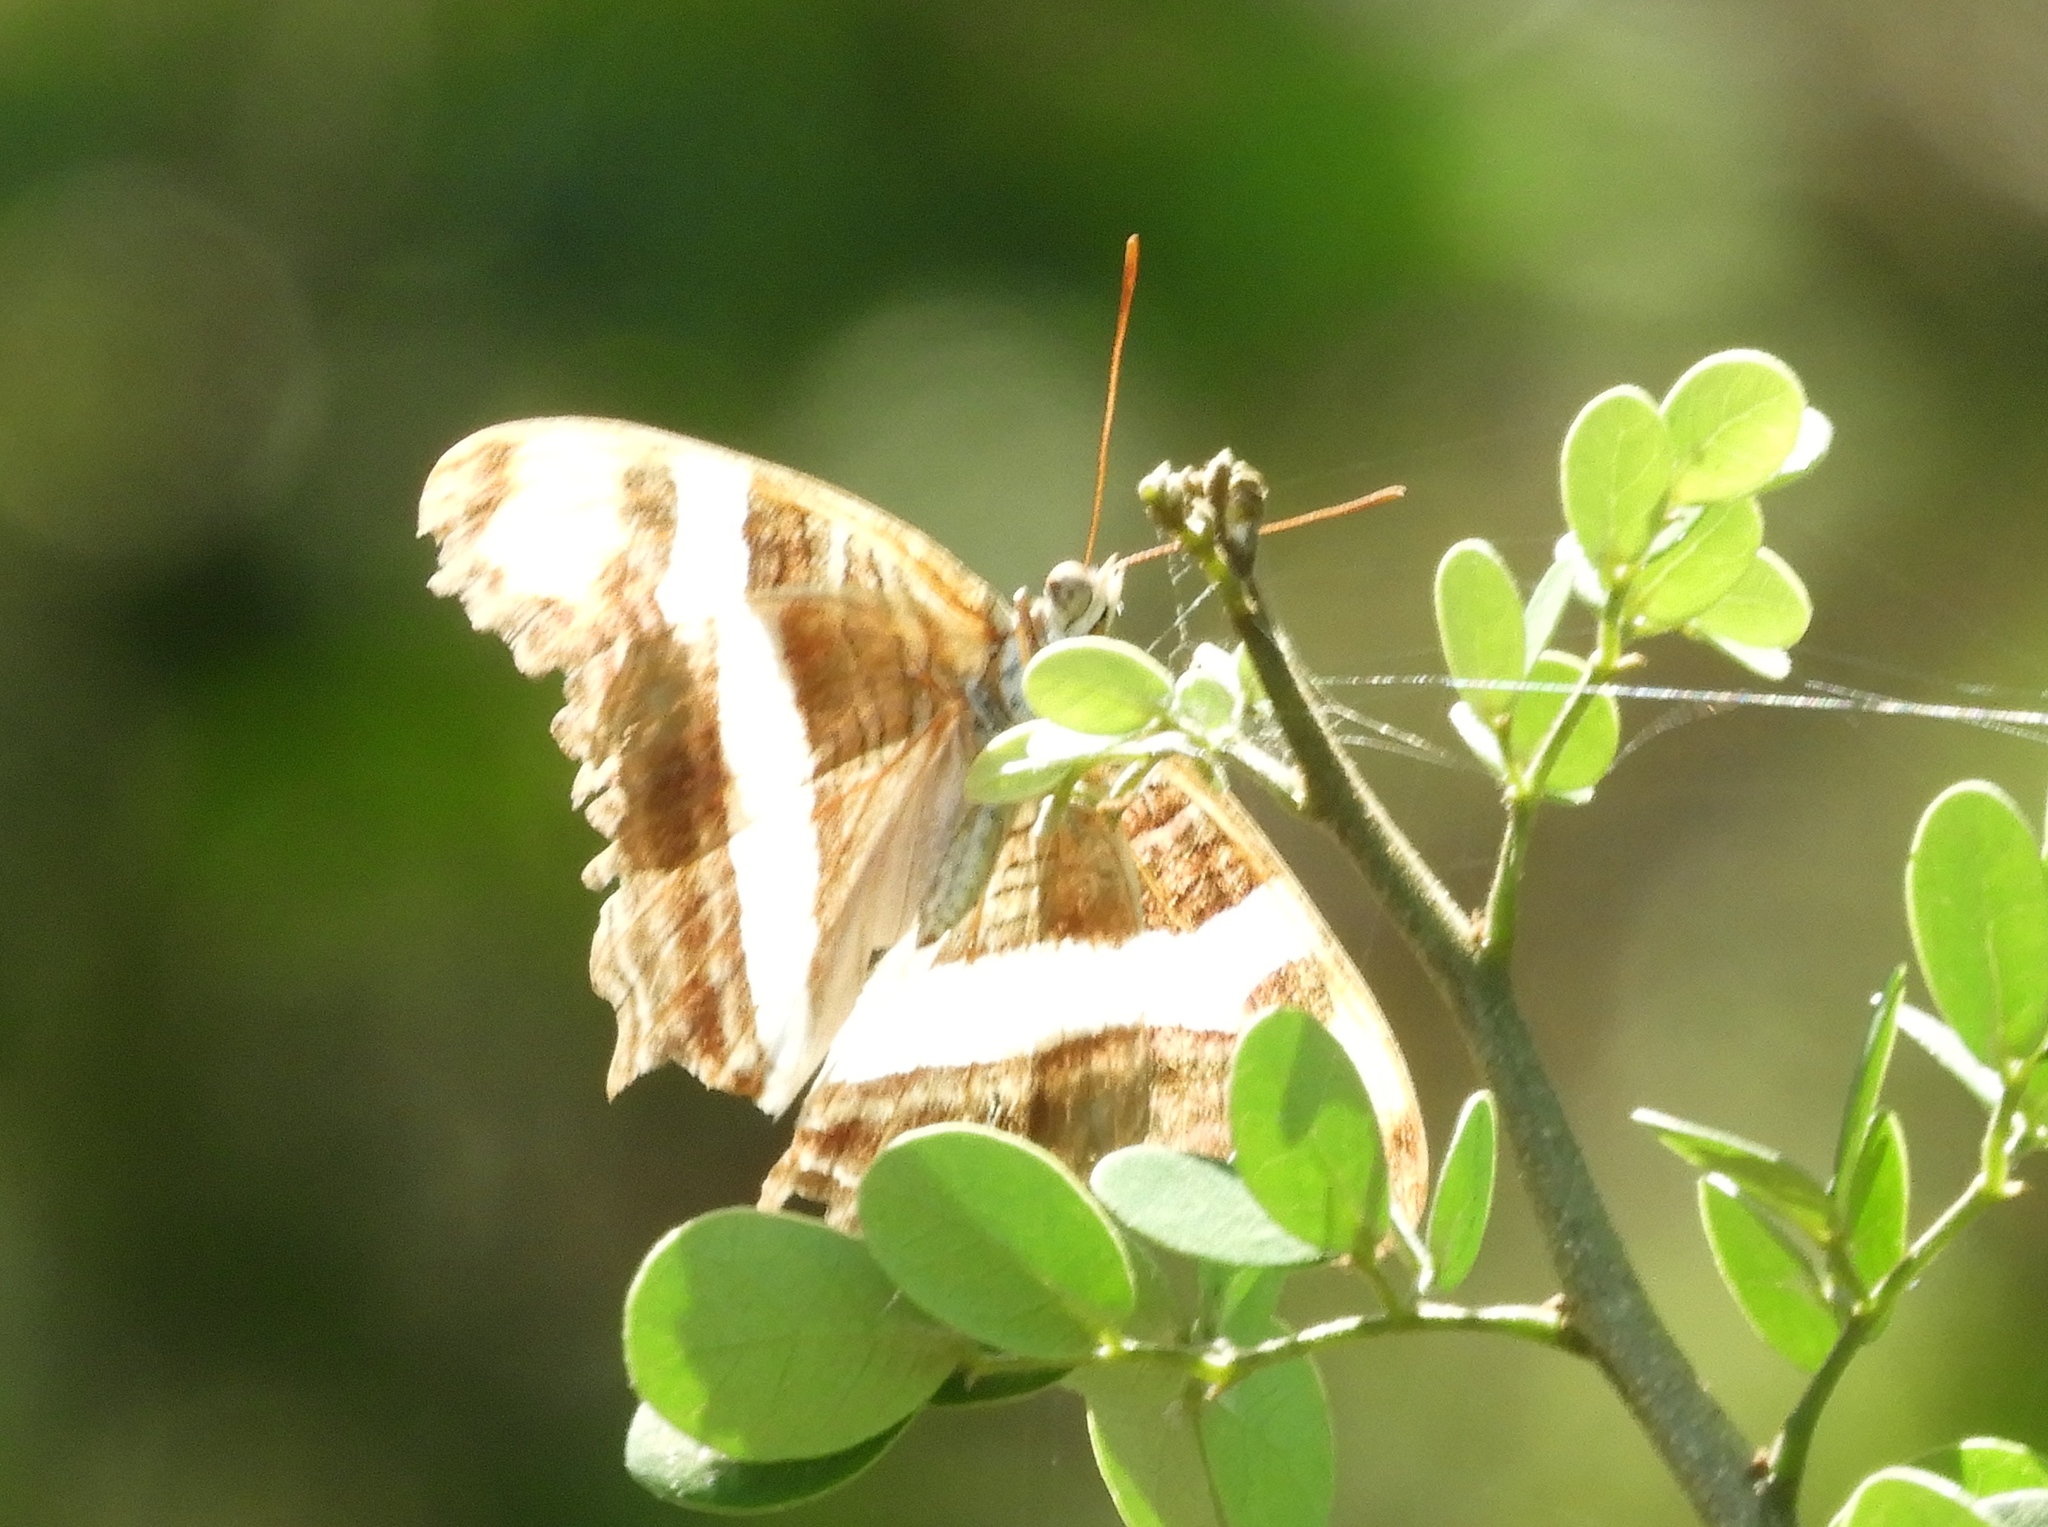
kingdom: Animalia
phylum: Arthropoda
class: Insecta
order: Lepidoptera
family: Nymphalidae
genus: Limenitis
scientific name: Limenitis fessonia
